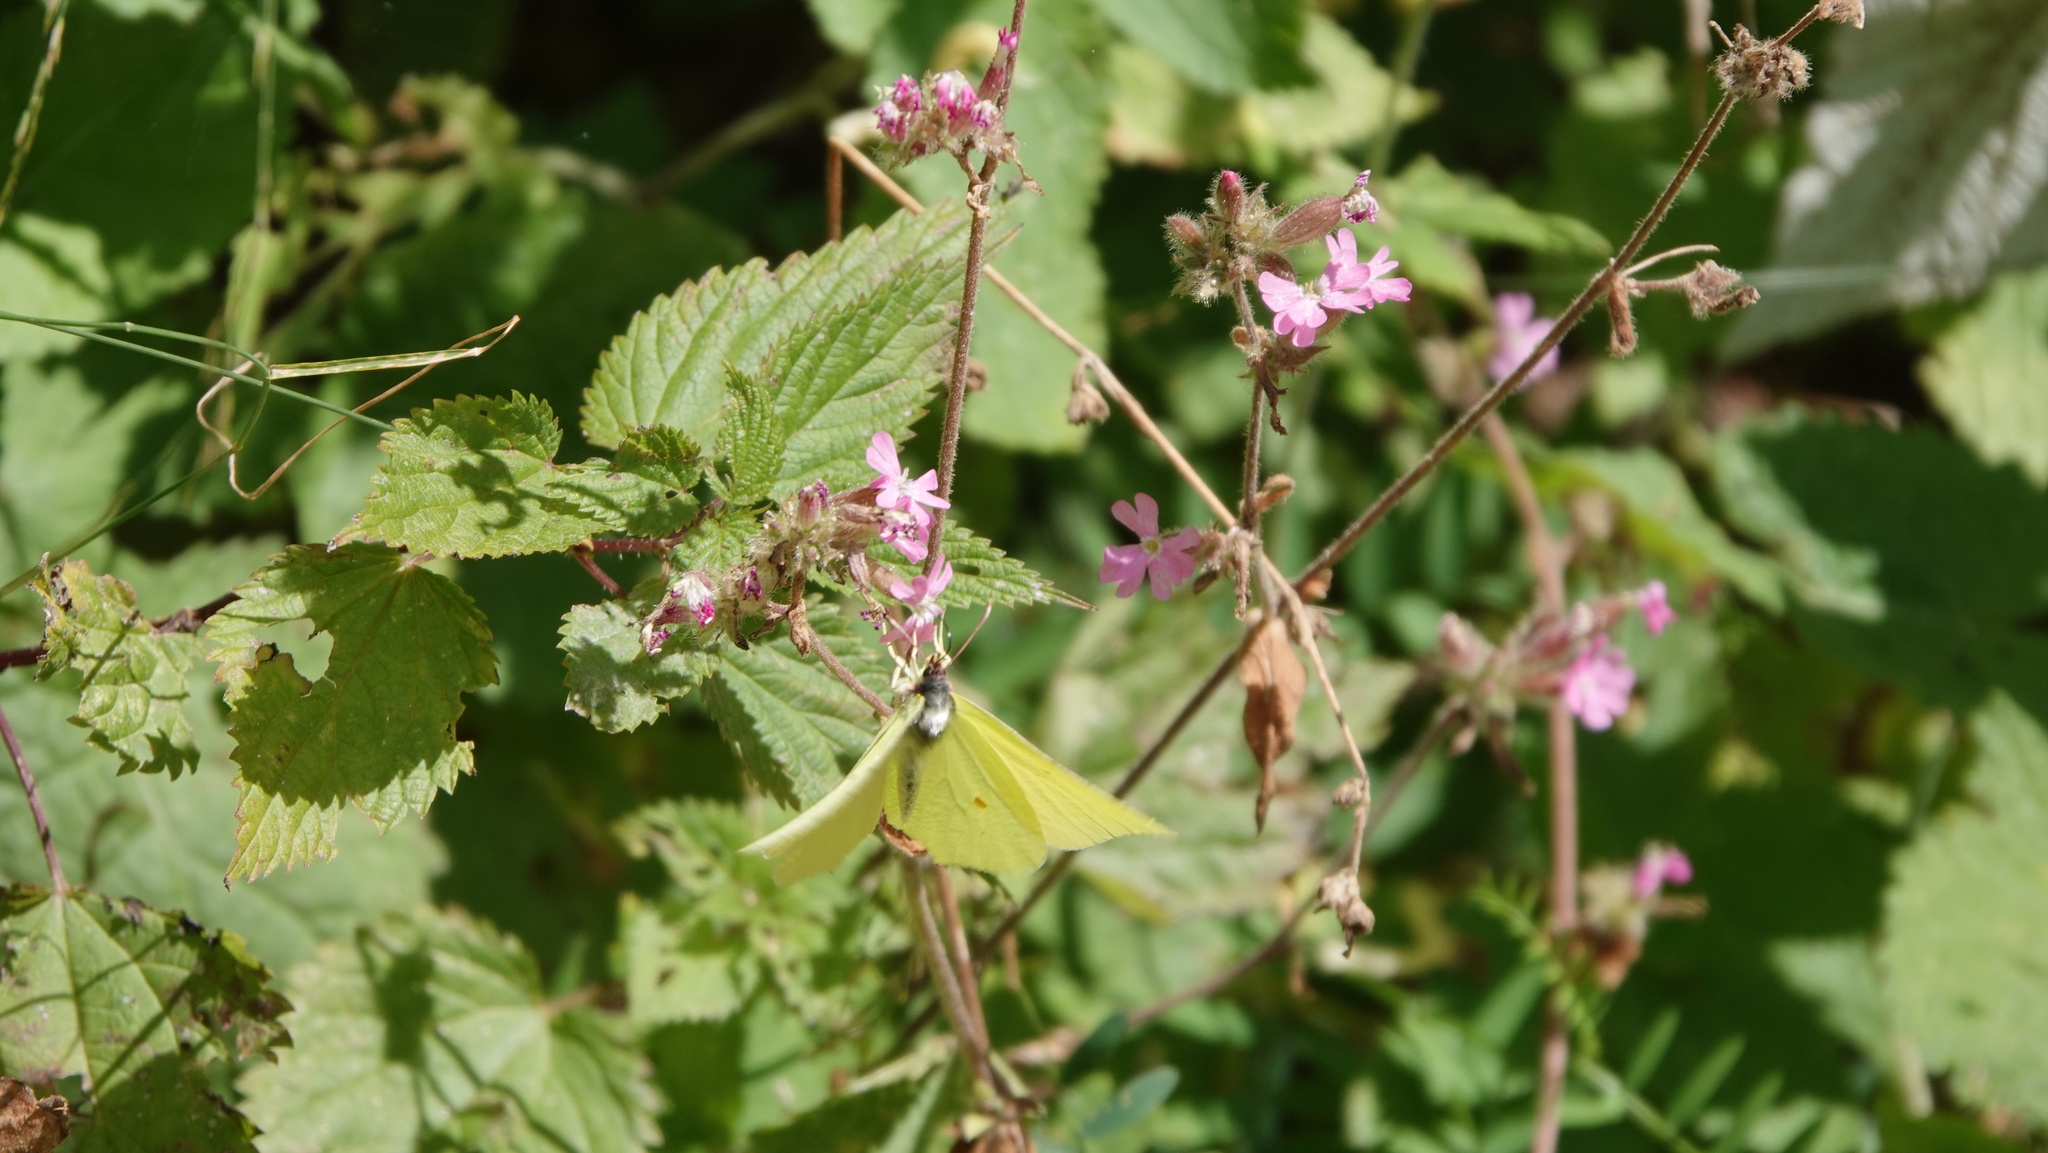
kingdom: Animalia
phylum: Arthropoda
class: Insecta
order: Lepidoptera
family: Pieridae
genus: Gonepteryx
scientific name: Gonepteryx rhamni
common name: Brimstone
